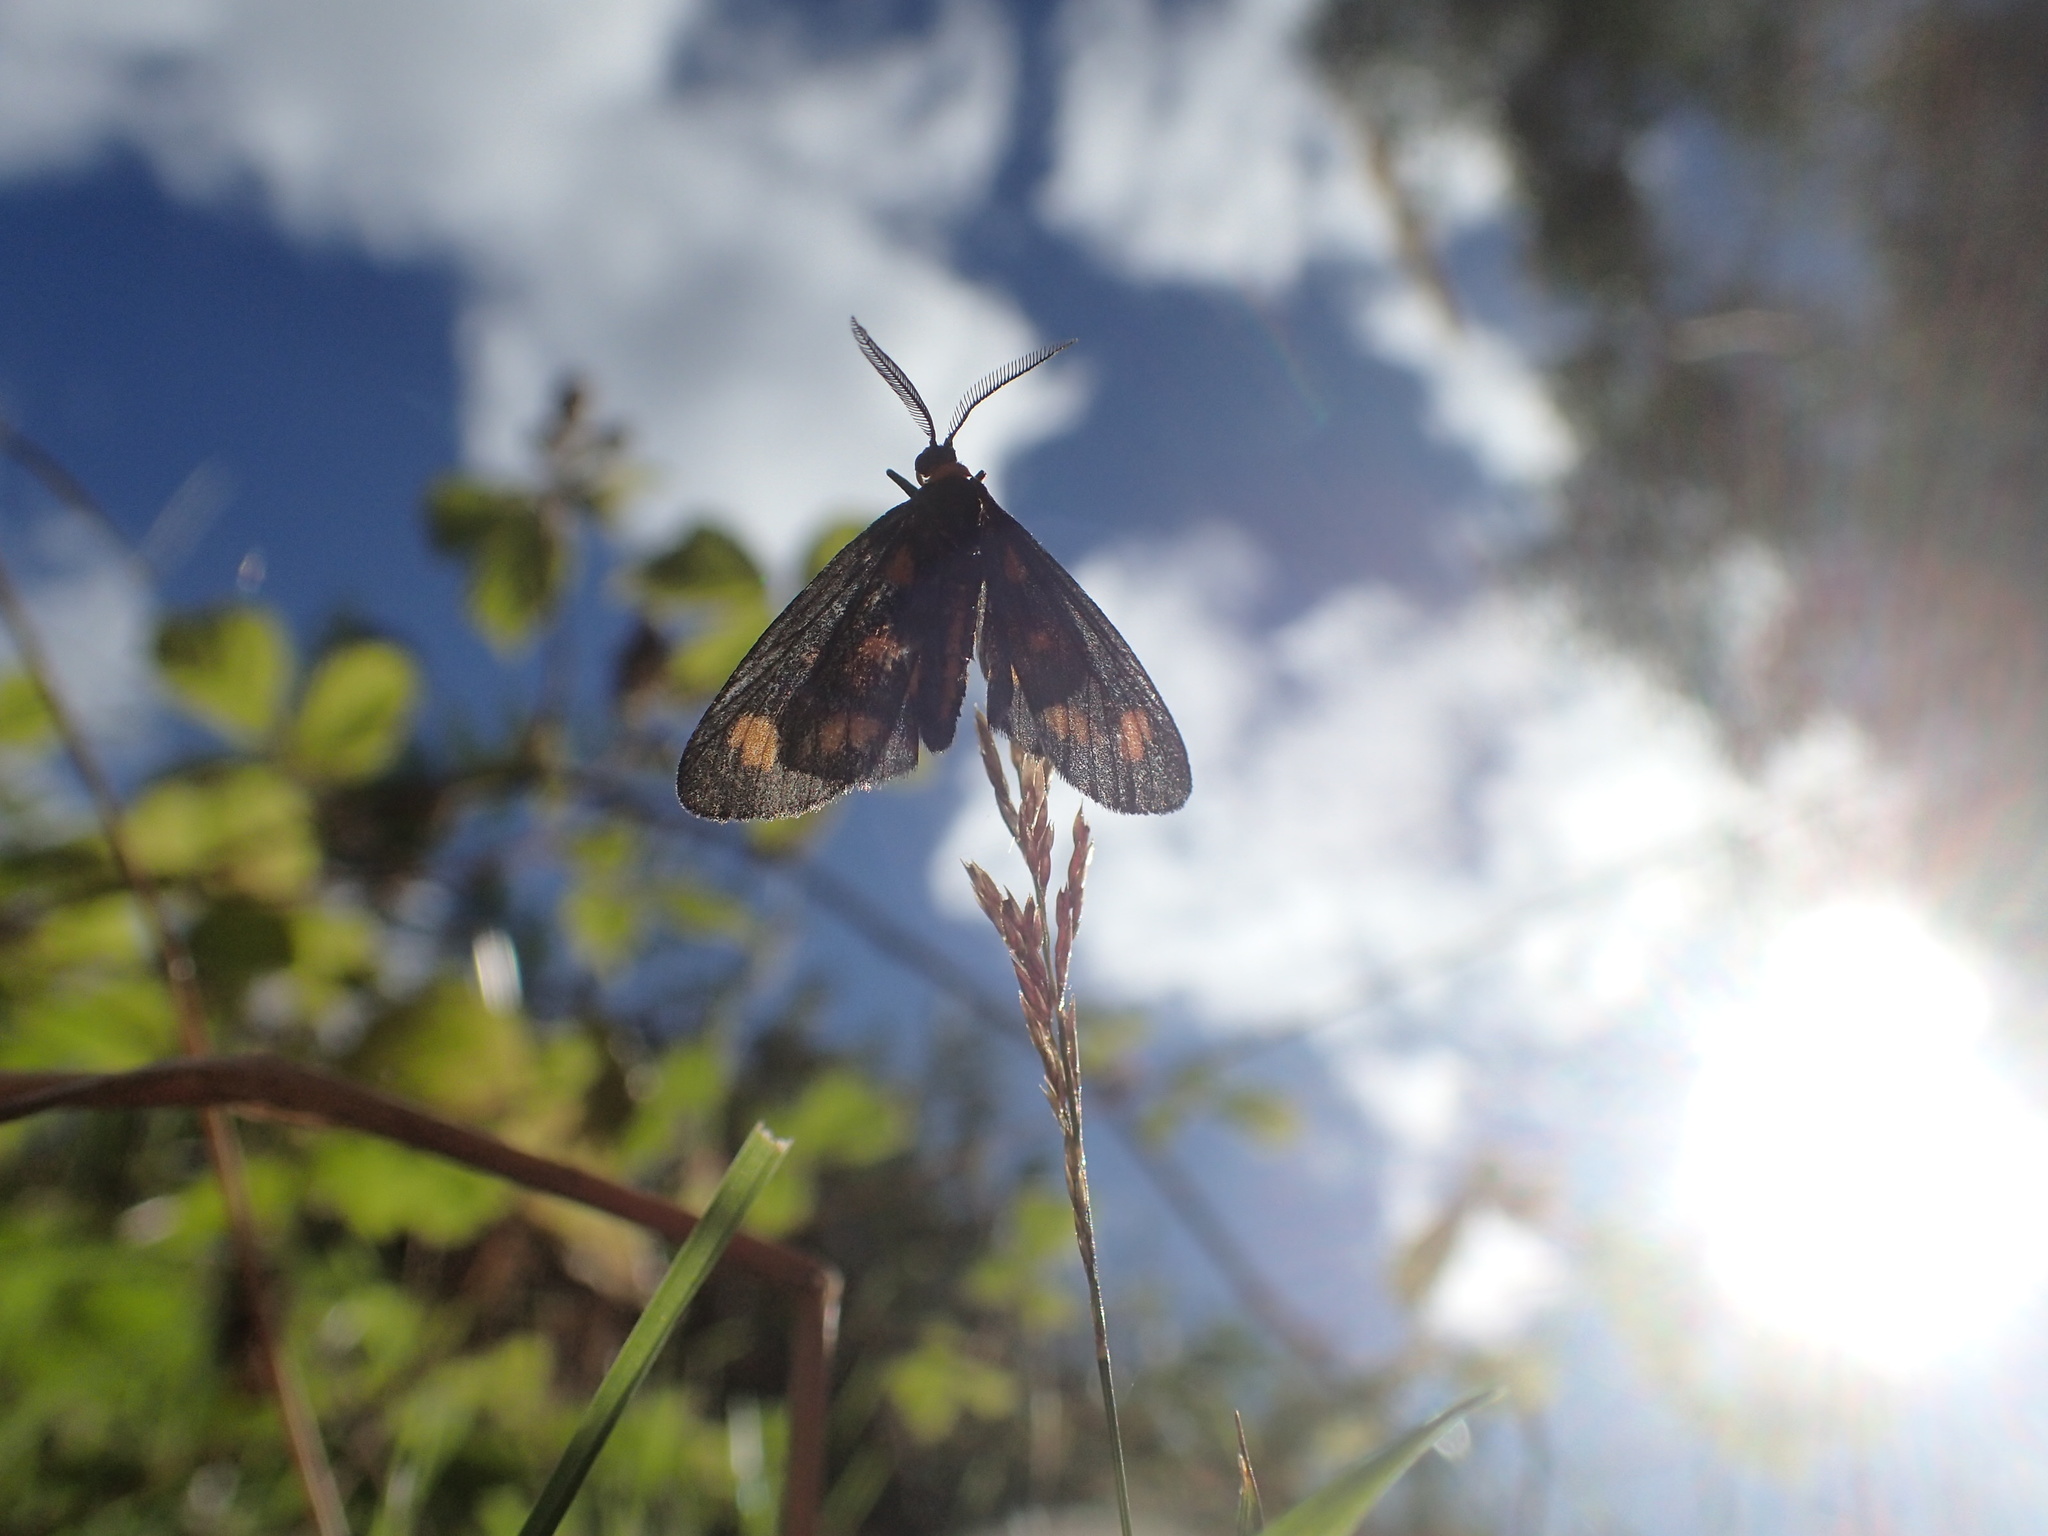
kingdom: Animalia
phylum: Arthropoda
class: Insecta
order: Lepidoptera
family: Erebidae
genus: Asura
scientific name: Asura cervicalis
